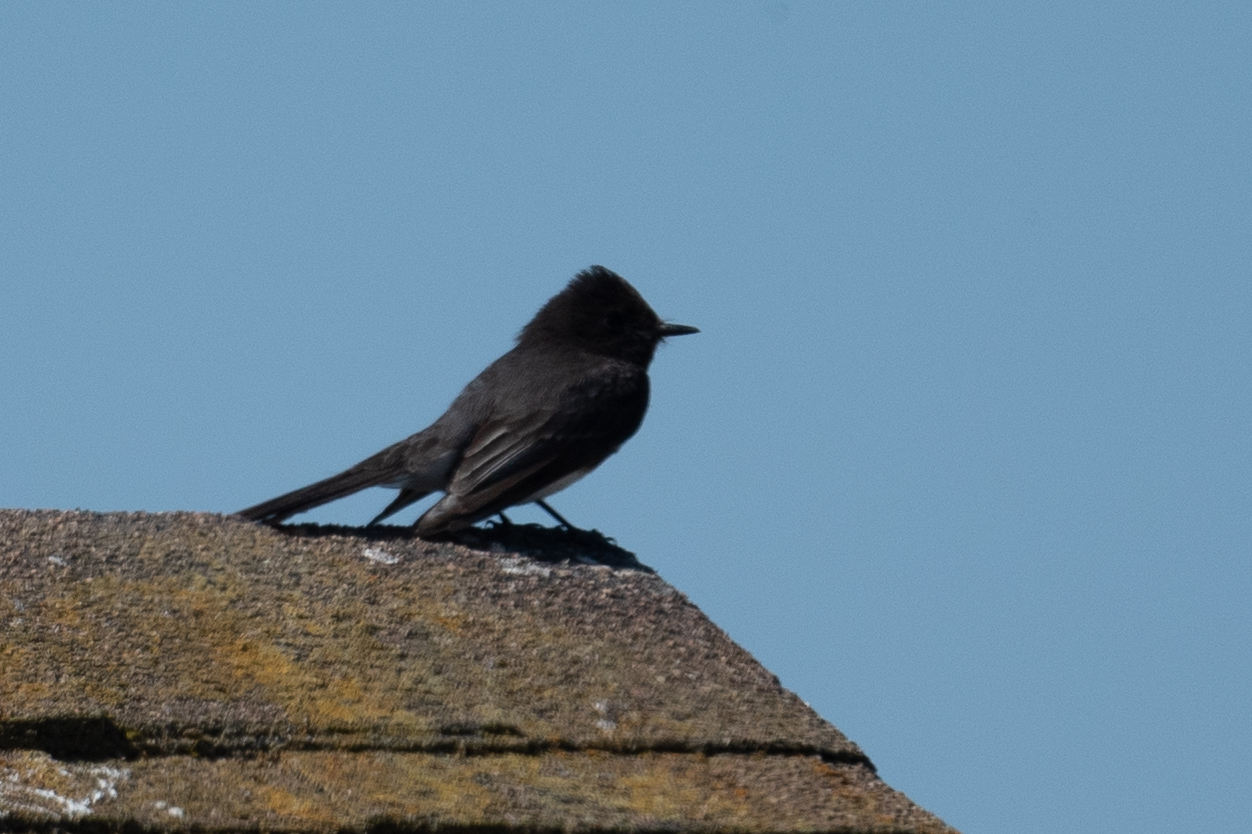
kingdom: Animalia
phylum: Chordata
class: Aves
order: Passeriformes
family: Tyrannidae
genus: Sayornis
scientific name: Sayornis nigricans
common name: Black phoebe
